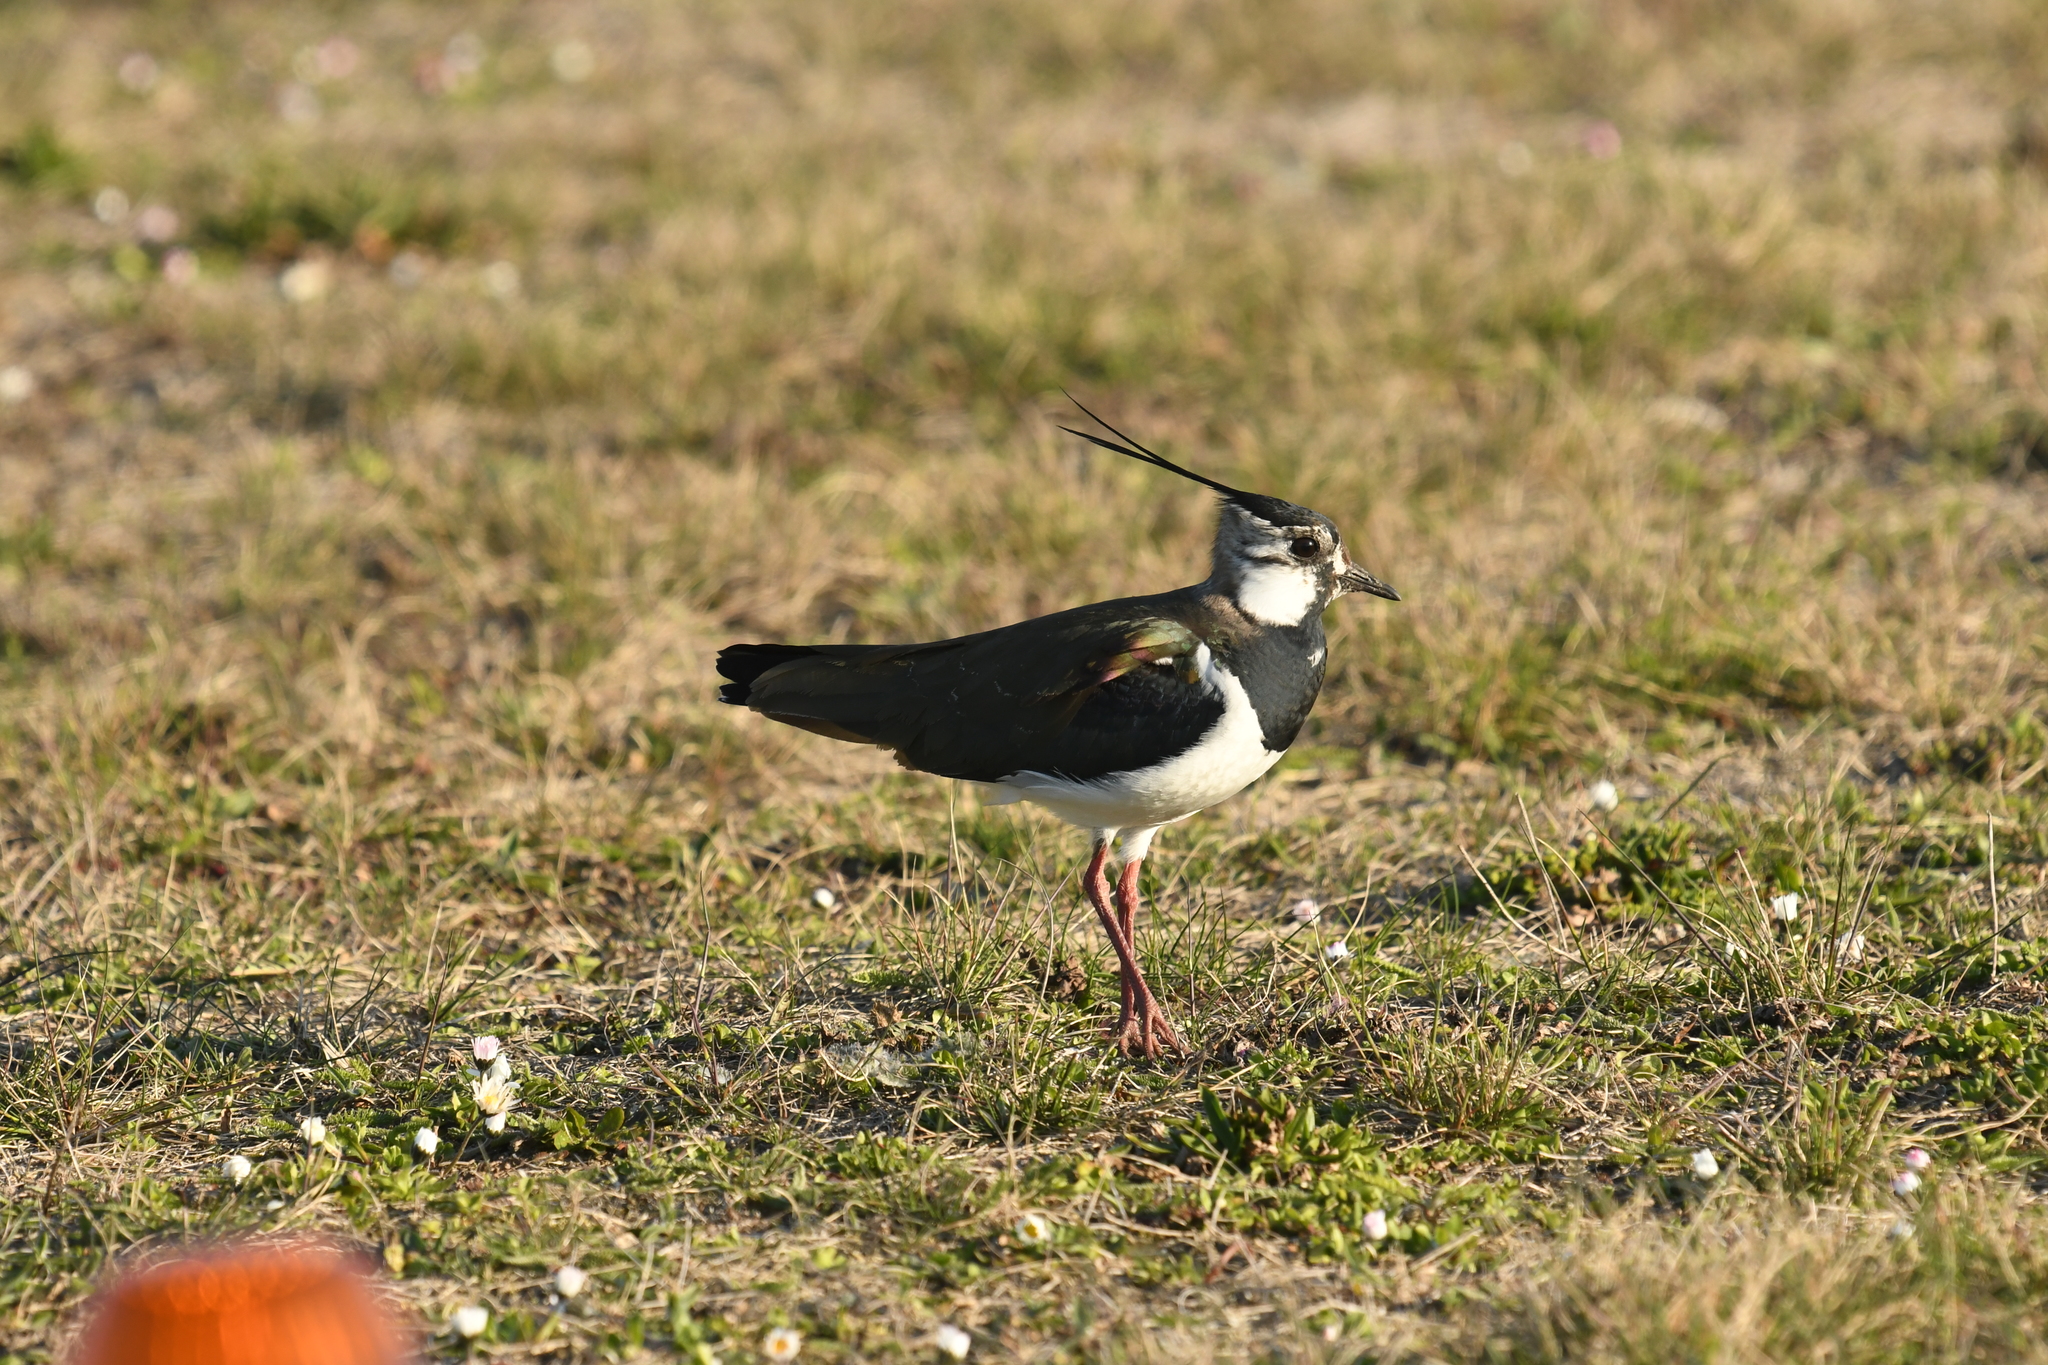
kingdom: Animalia
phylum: Chordata
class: Aves
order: Charadriiformes
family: Charadriidae
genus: Vanellus
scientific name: Vanellus vanellus
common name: Northern lapwing
